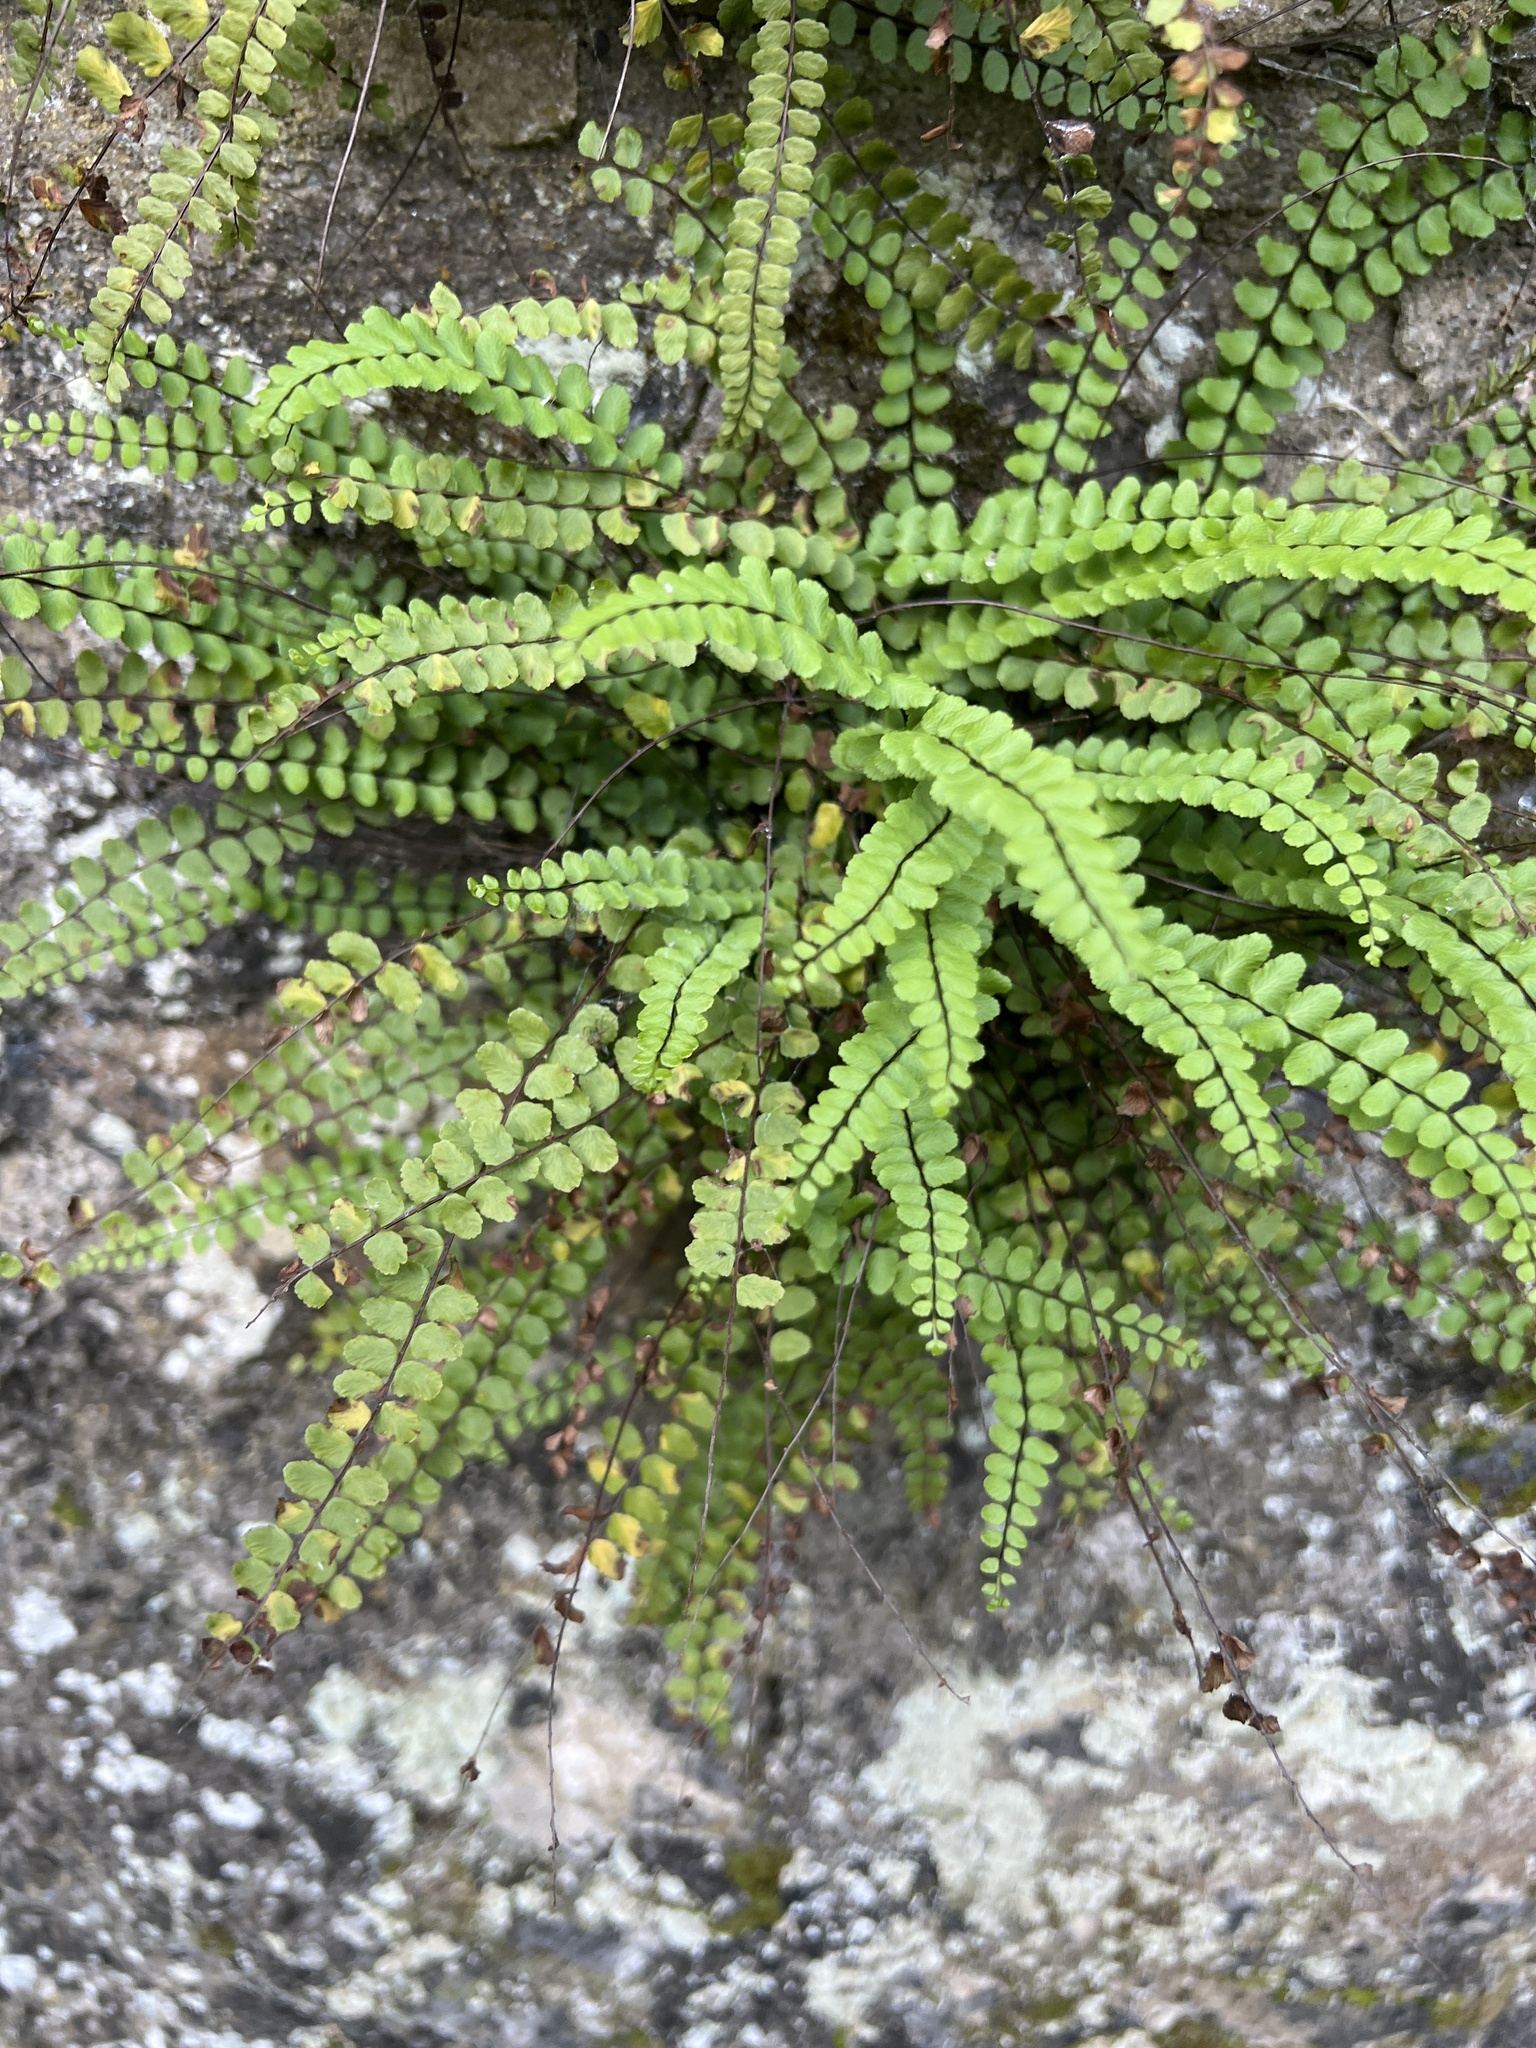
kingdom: Plantae
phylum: Tracheophyta
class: Polypodiopsida
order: Polypodiales
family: Aspleniaceae
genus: Asplenium
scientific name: Asplenium trichomanes
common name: Maidenhair spleenwort
